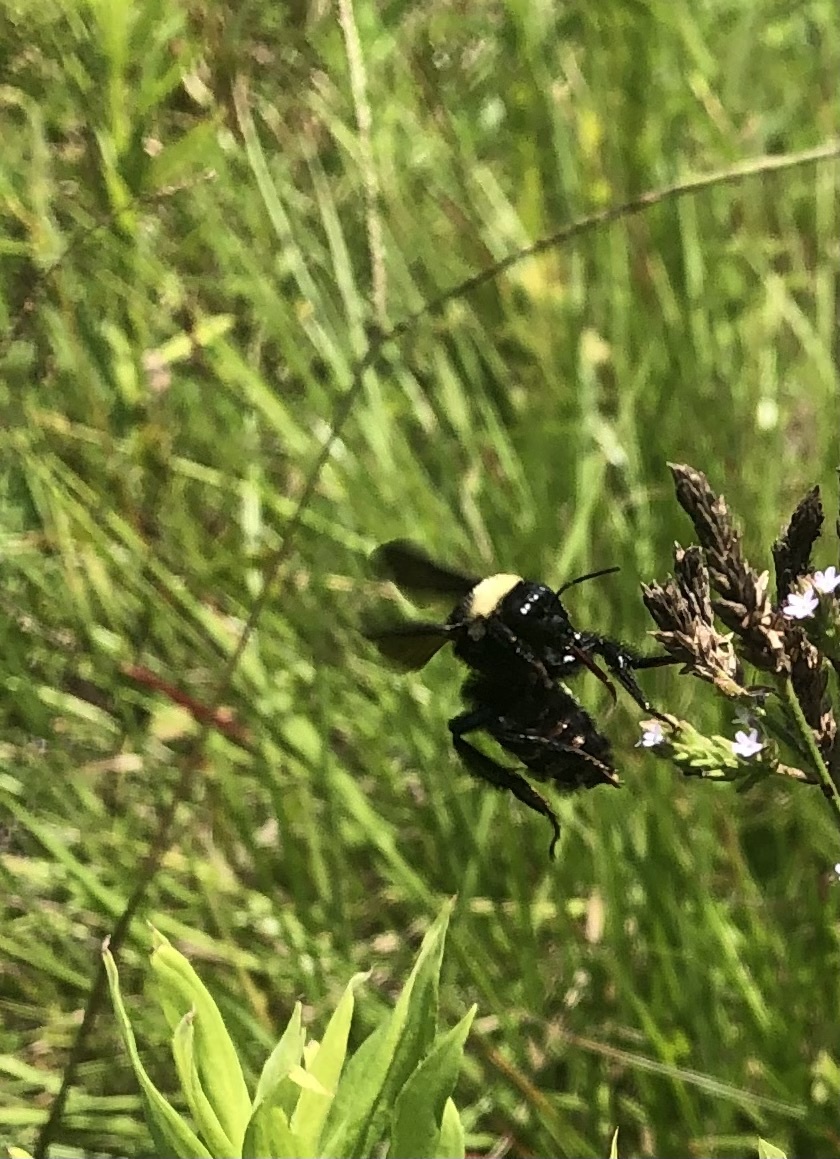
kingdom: Animalia
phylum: Arthropoda
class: Insecta
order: Hymenoptera
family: Apidae
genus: Bombus
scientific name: Bombus pensylvanicus
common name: Bumble bee
